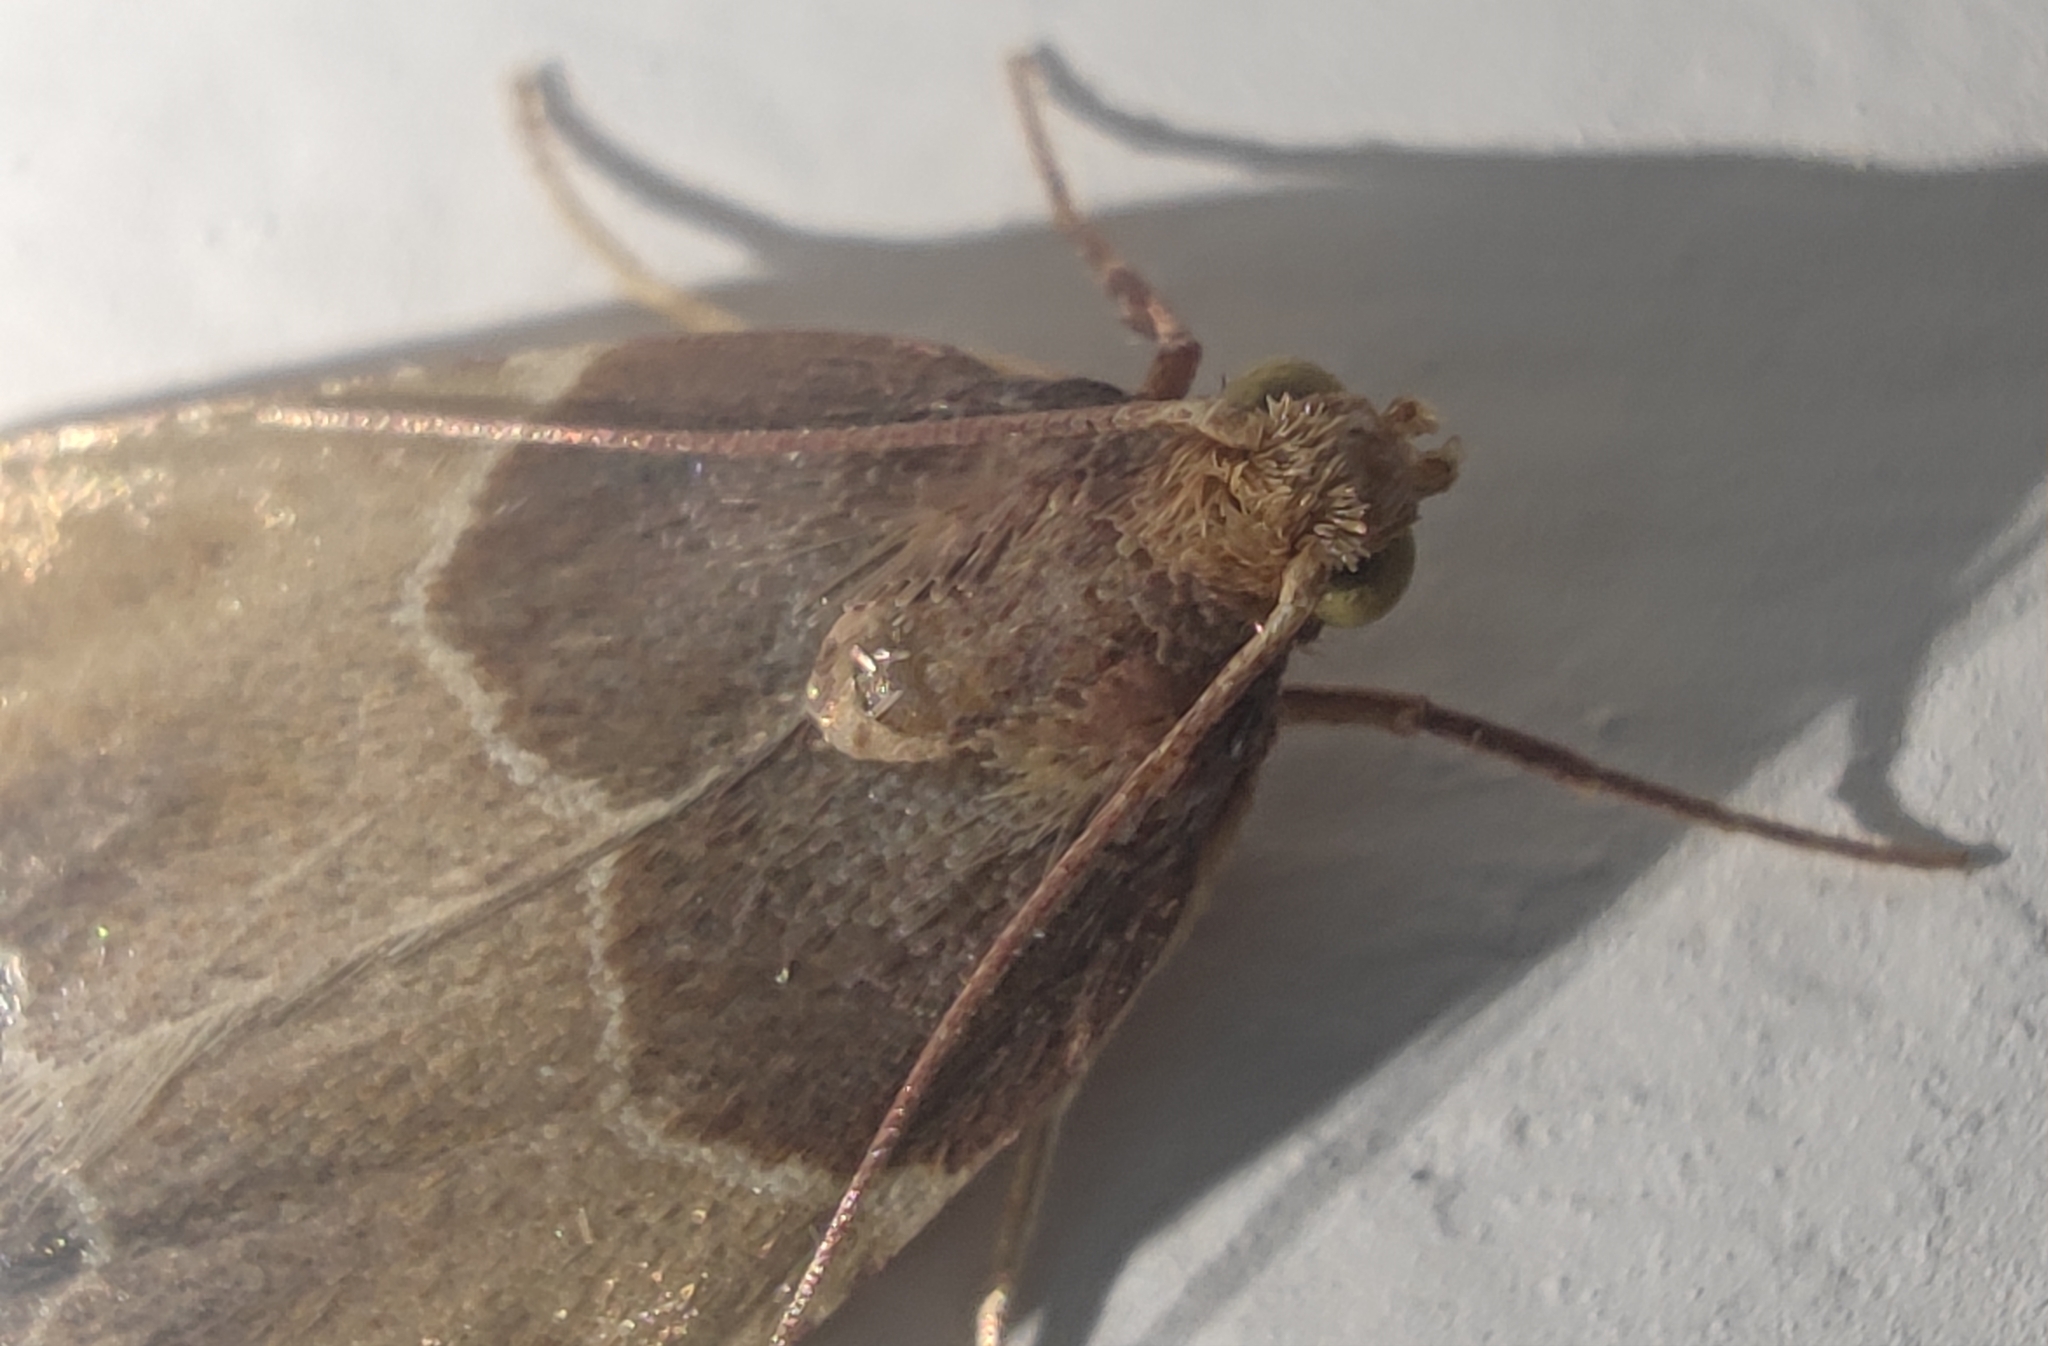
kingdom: Animalia
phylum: Arthropoda
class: Insecta
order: Lepidoptera
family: Pyralidae
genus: Pyralis
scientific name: Pyralis farinalis
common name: Meal moth
